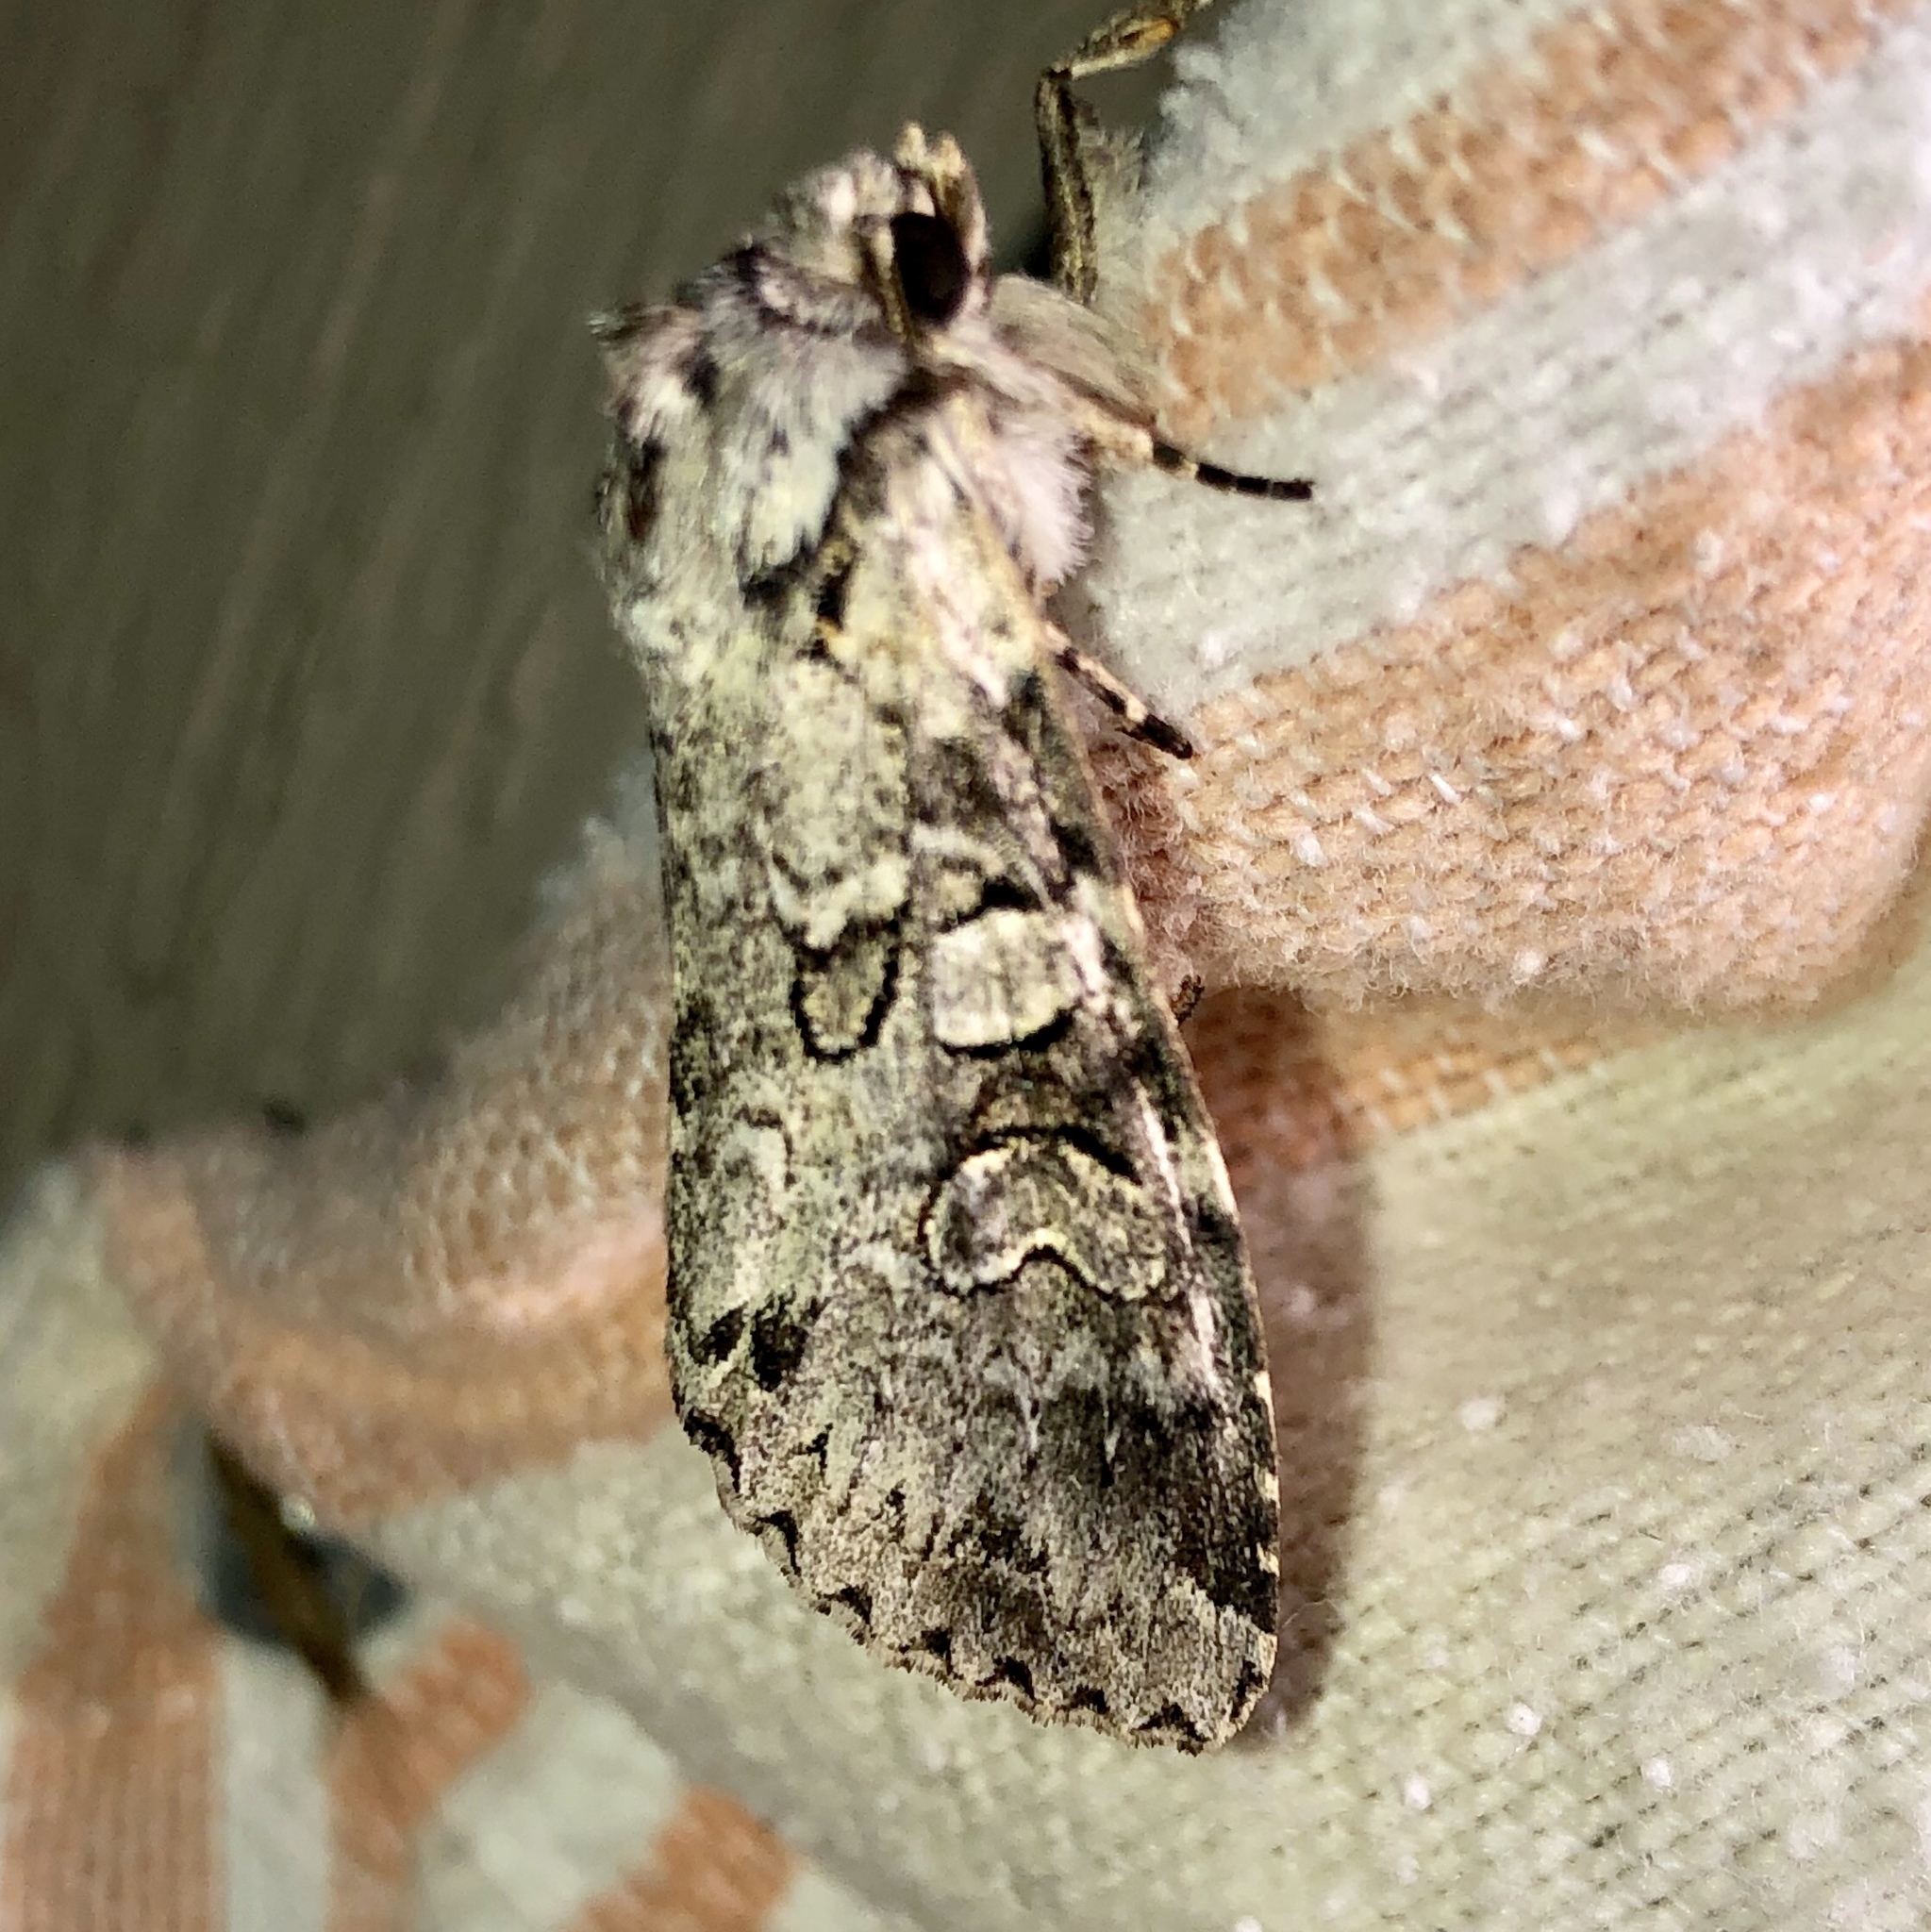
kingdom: Animalia
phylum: Arthropoda
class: Insecta
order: Lepidoptera
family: Noctuidae
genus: Polia
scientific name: Polia nimbosa
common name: Stormy arches
